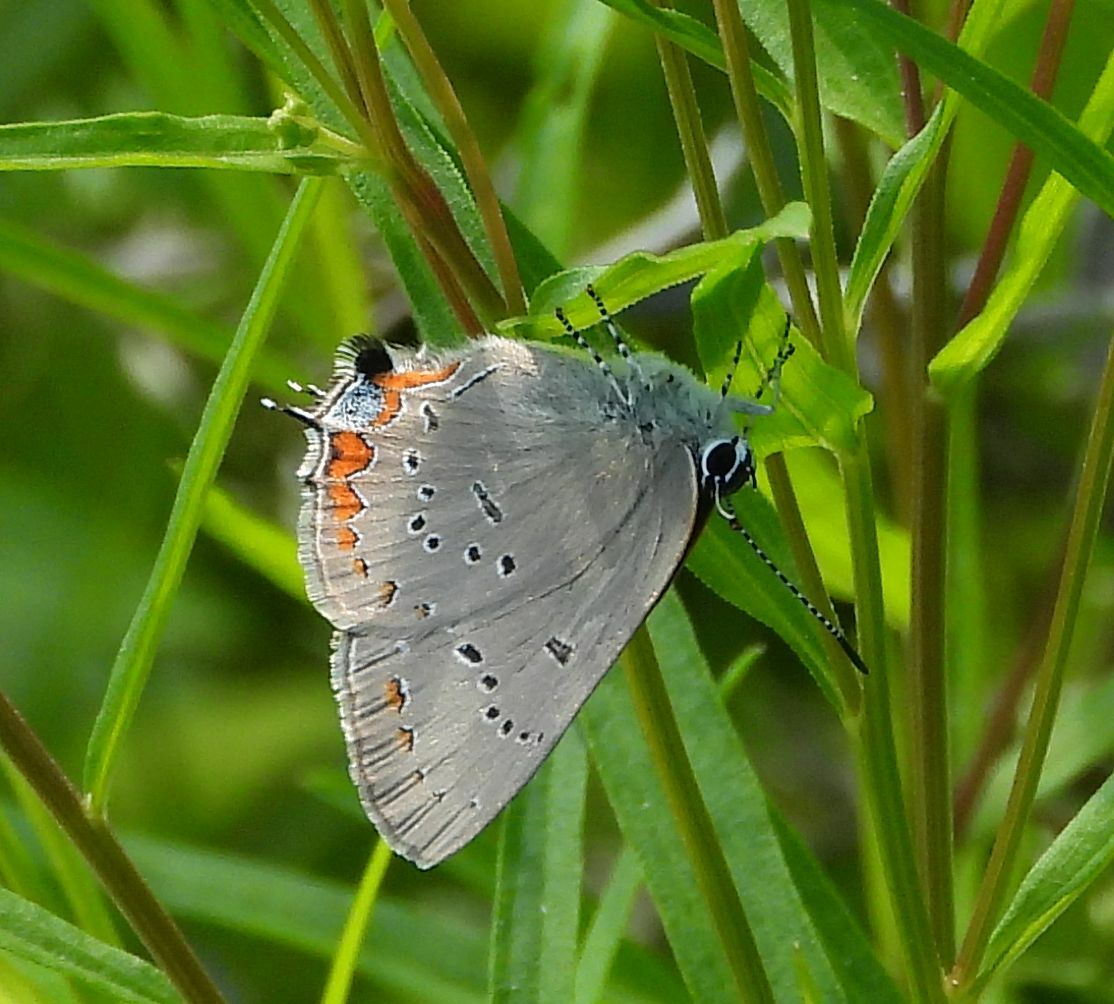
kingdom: Animalia
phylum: Arthropoda
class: Insecta
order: Lepidoptera
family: Lycaenidae
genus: Strymon
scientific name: Strymon acadica
